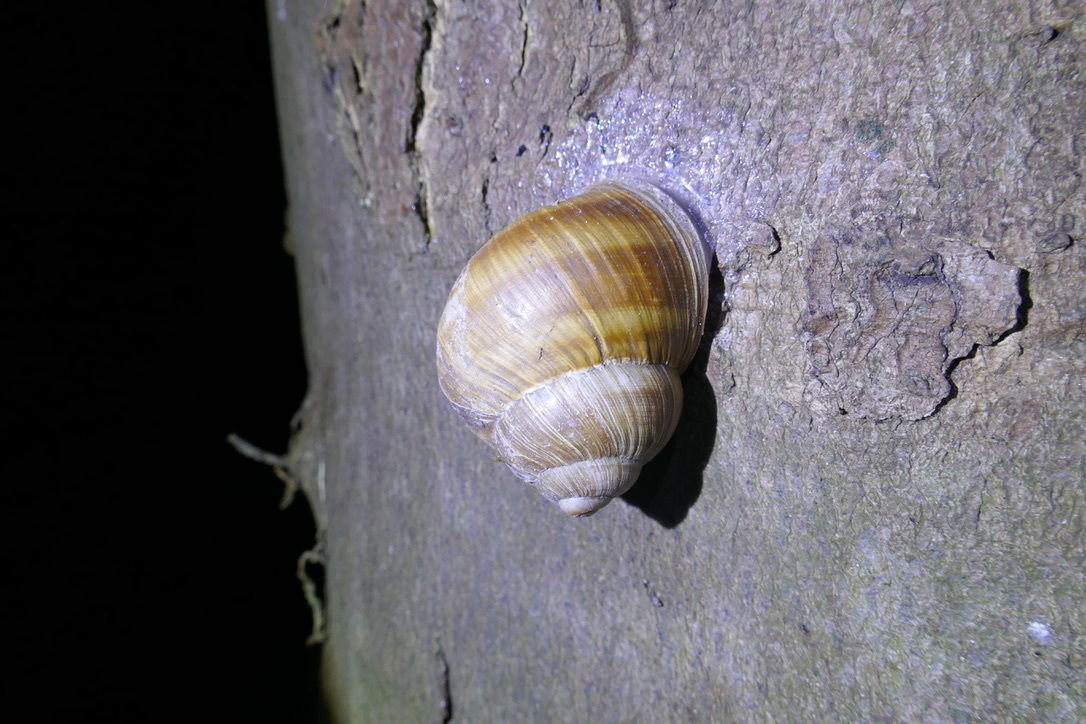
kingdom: Animalia
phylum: Mollusca
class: Gastropoda
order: Stylommatophora
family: Helicidae
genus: Helix
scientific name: Helix pomatia
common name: Roman snail
